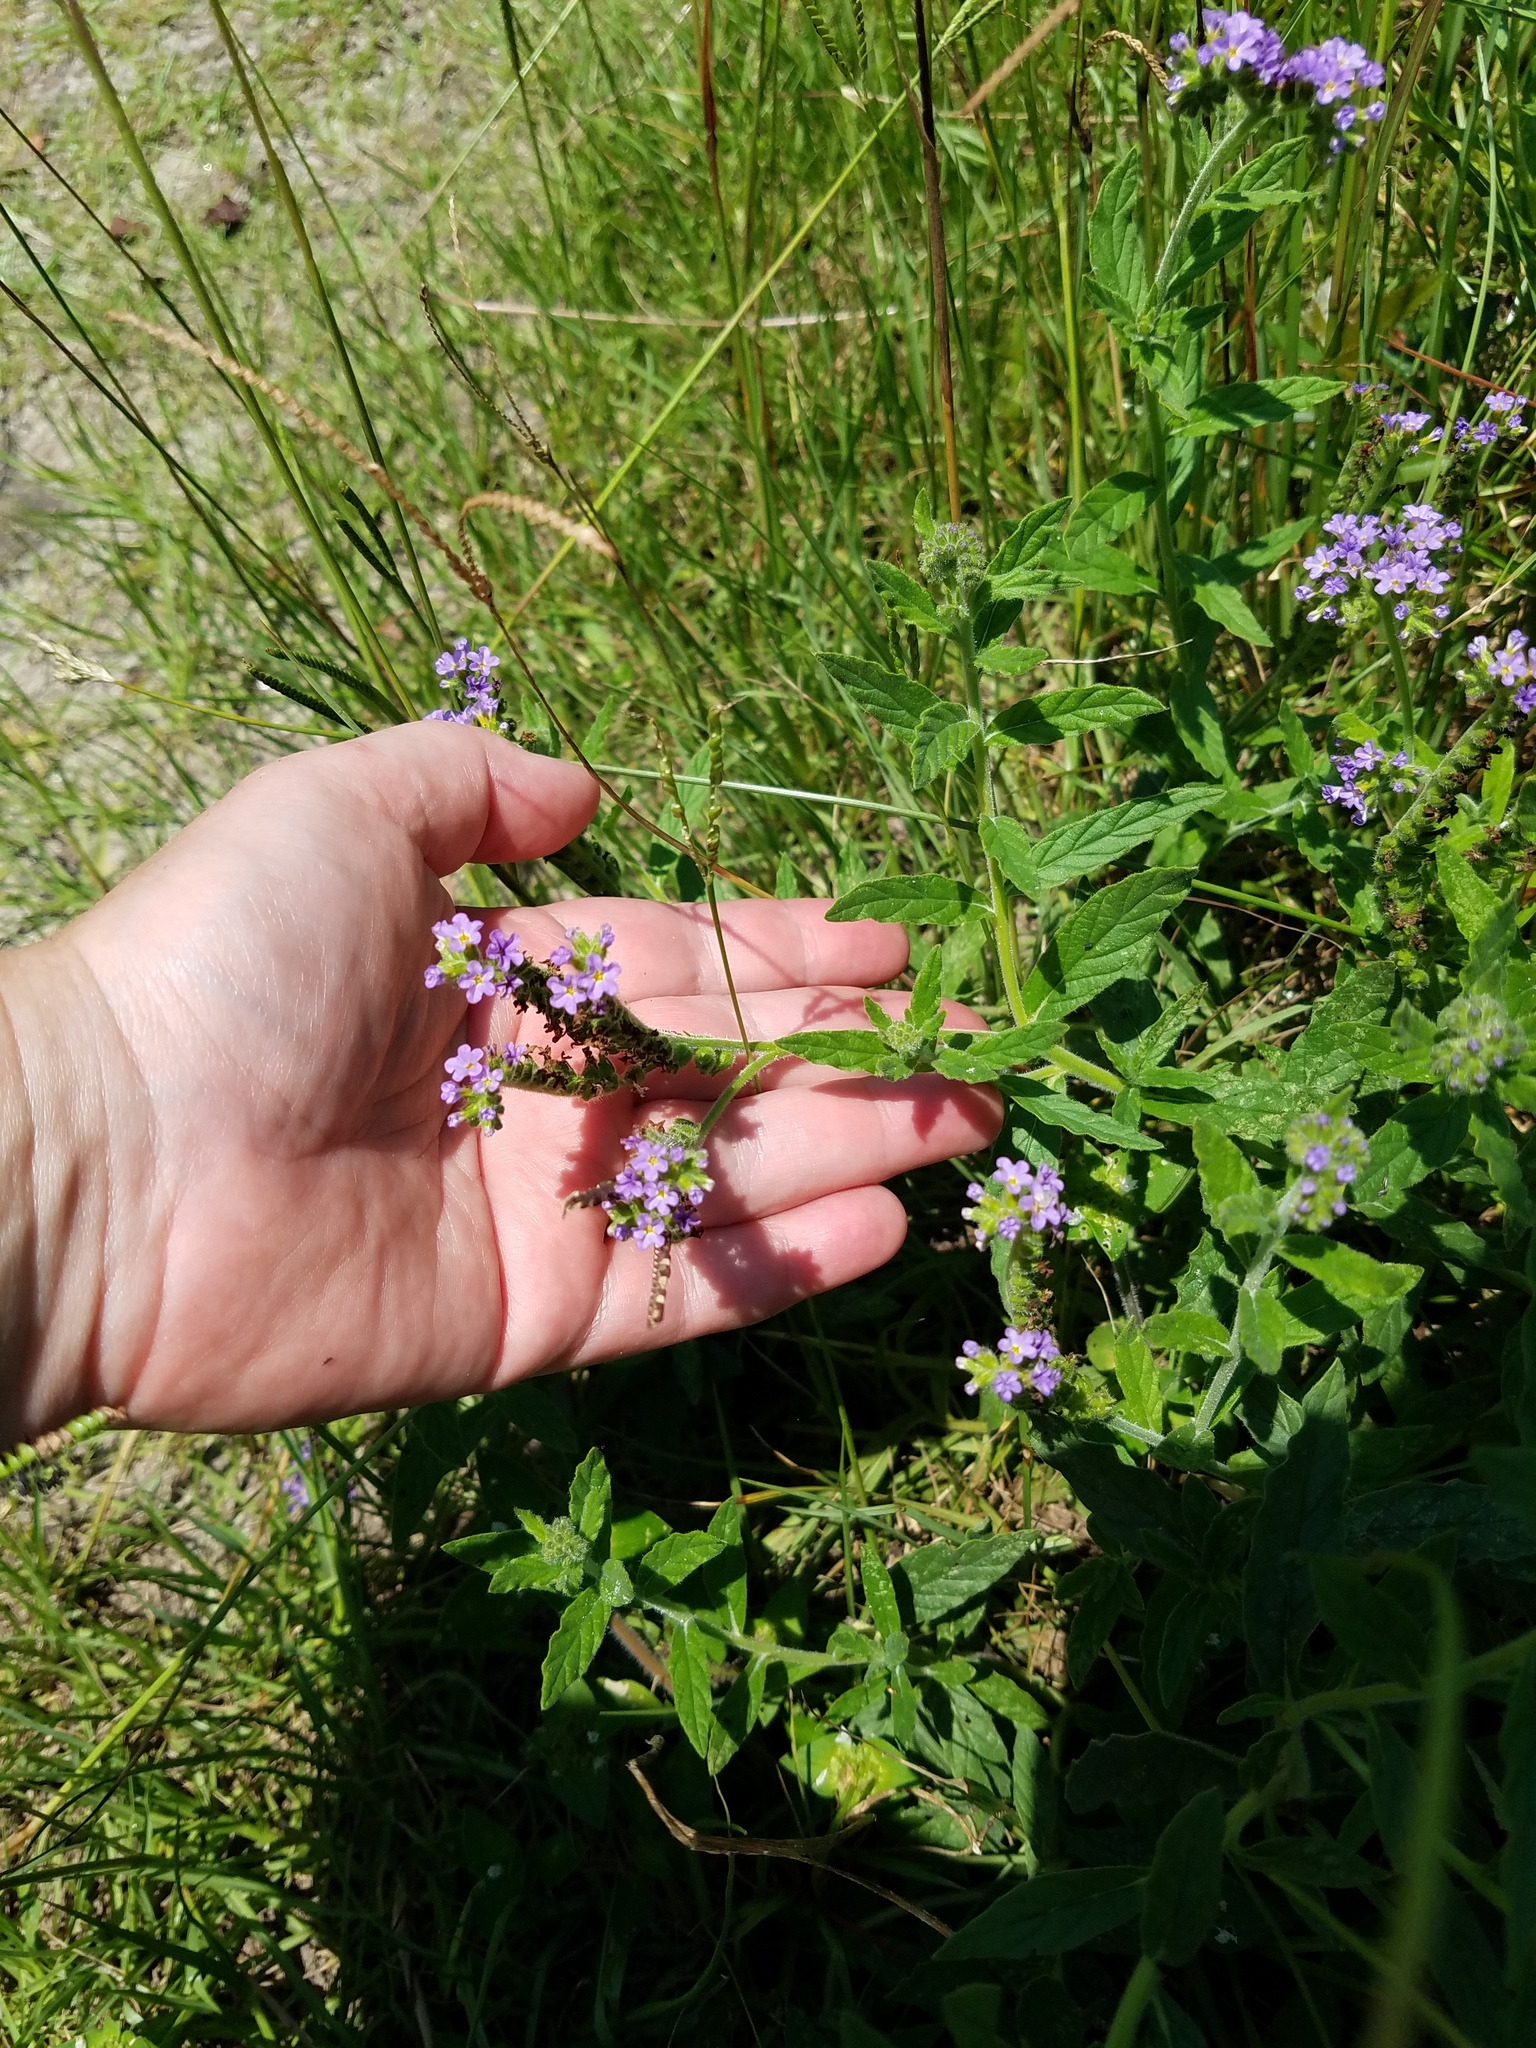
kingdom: Plantae
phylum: Tracheophyta
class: Magnoliopsida
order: Boraginales
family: Heliotropiaceae
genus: Heliotropium
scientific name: Heliotropium amplexicaule
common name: Clasping heliotrope
